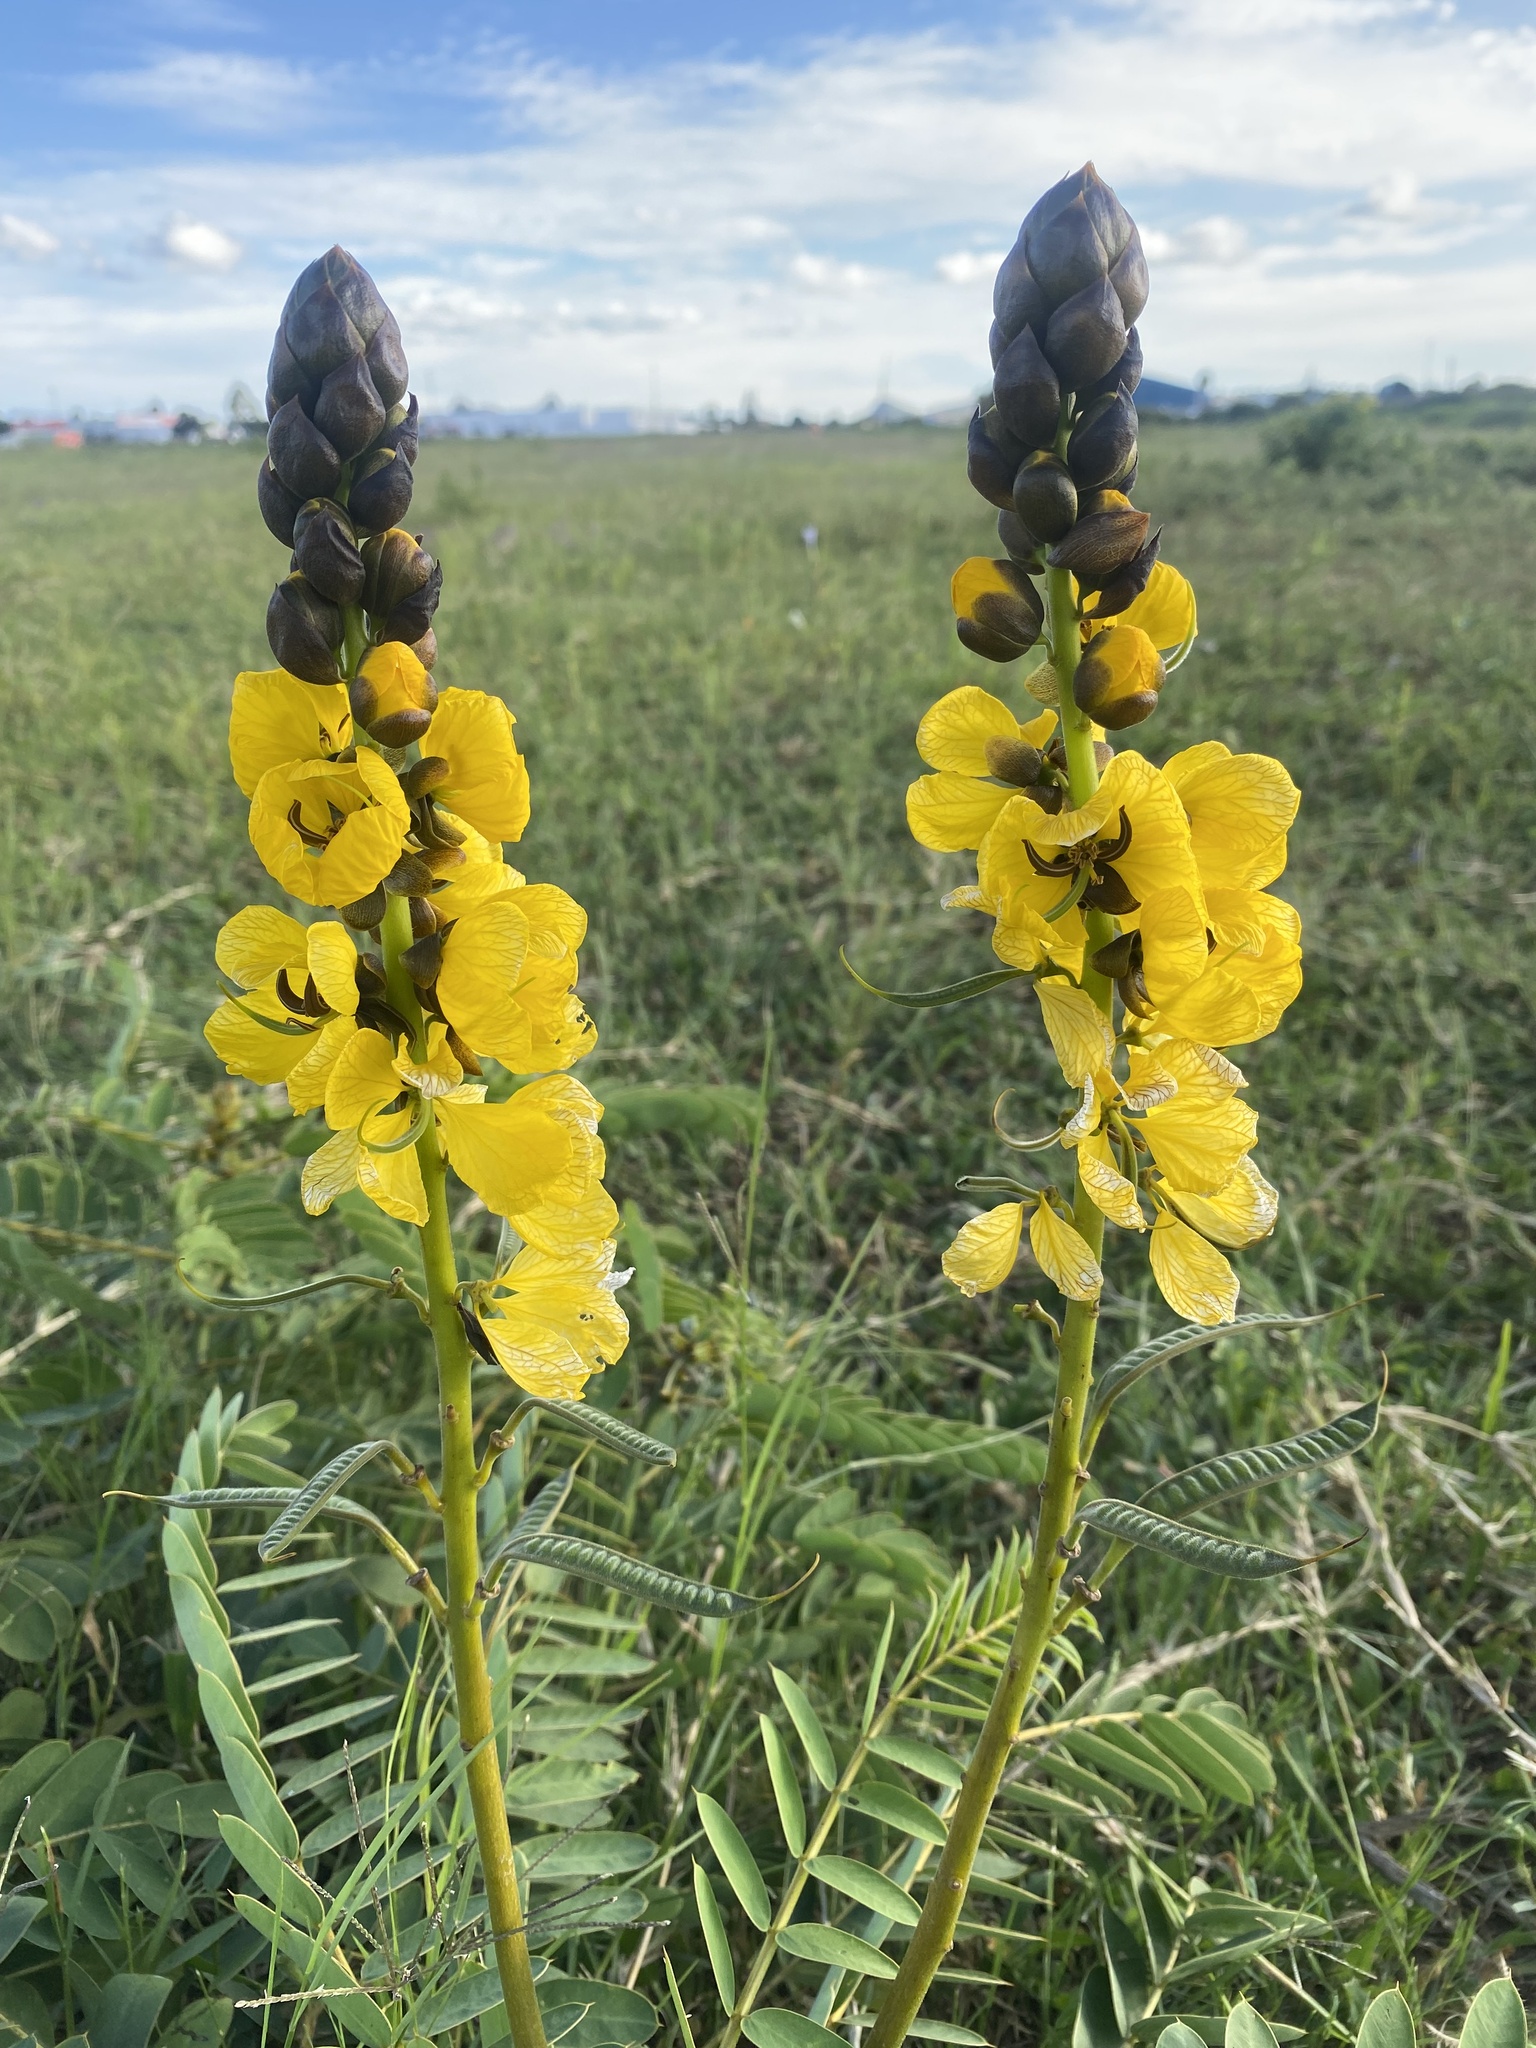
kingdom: Plantae
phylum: Tracheophyta
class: Magnoliopsida
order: Fabales
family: Fabaceae
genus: Senna
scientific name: Senna didymobotrya
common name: African senna
